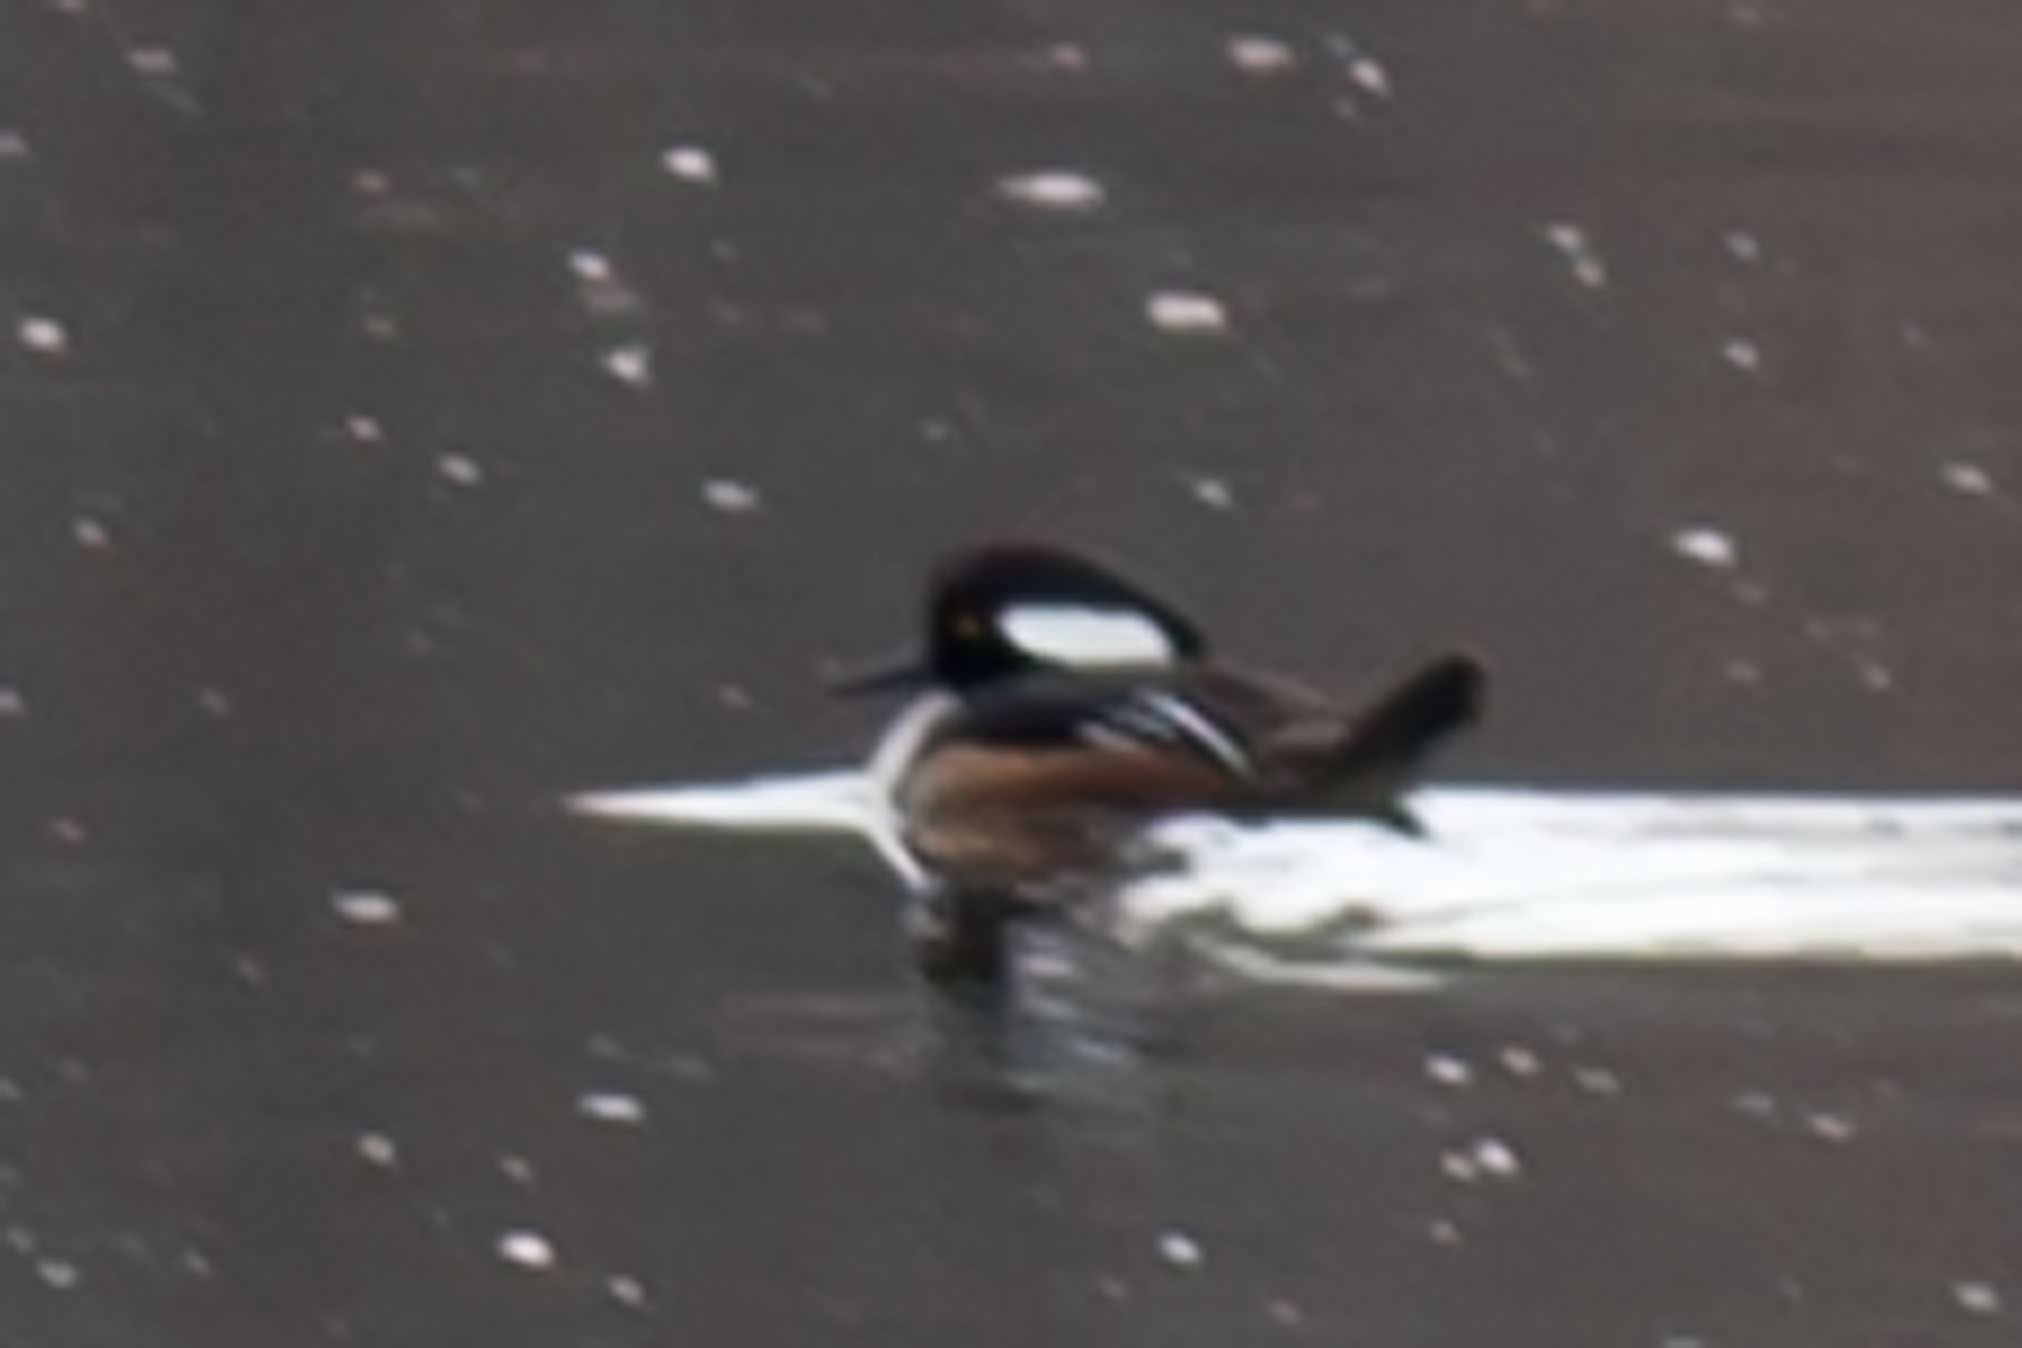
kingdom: Animalia
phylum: Chordata
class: Aves
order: Anseriformes
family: Anatidae
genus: Lophodytes
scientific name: Lophodytes cucullatus
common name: Hooded merganser
